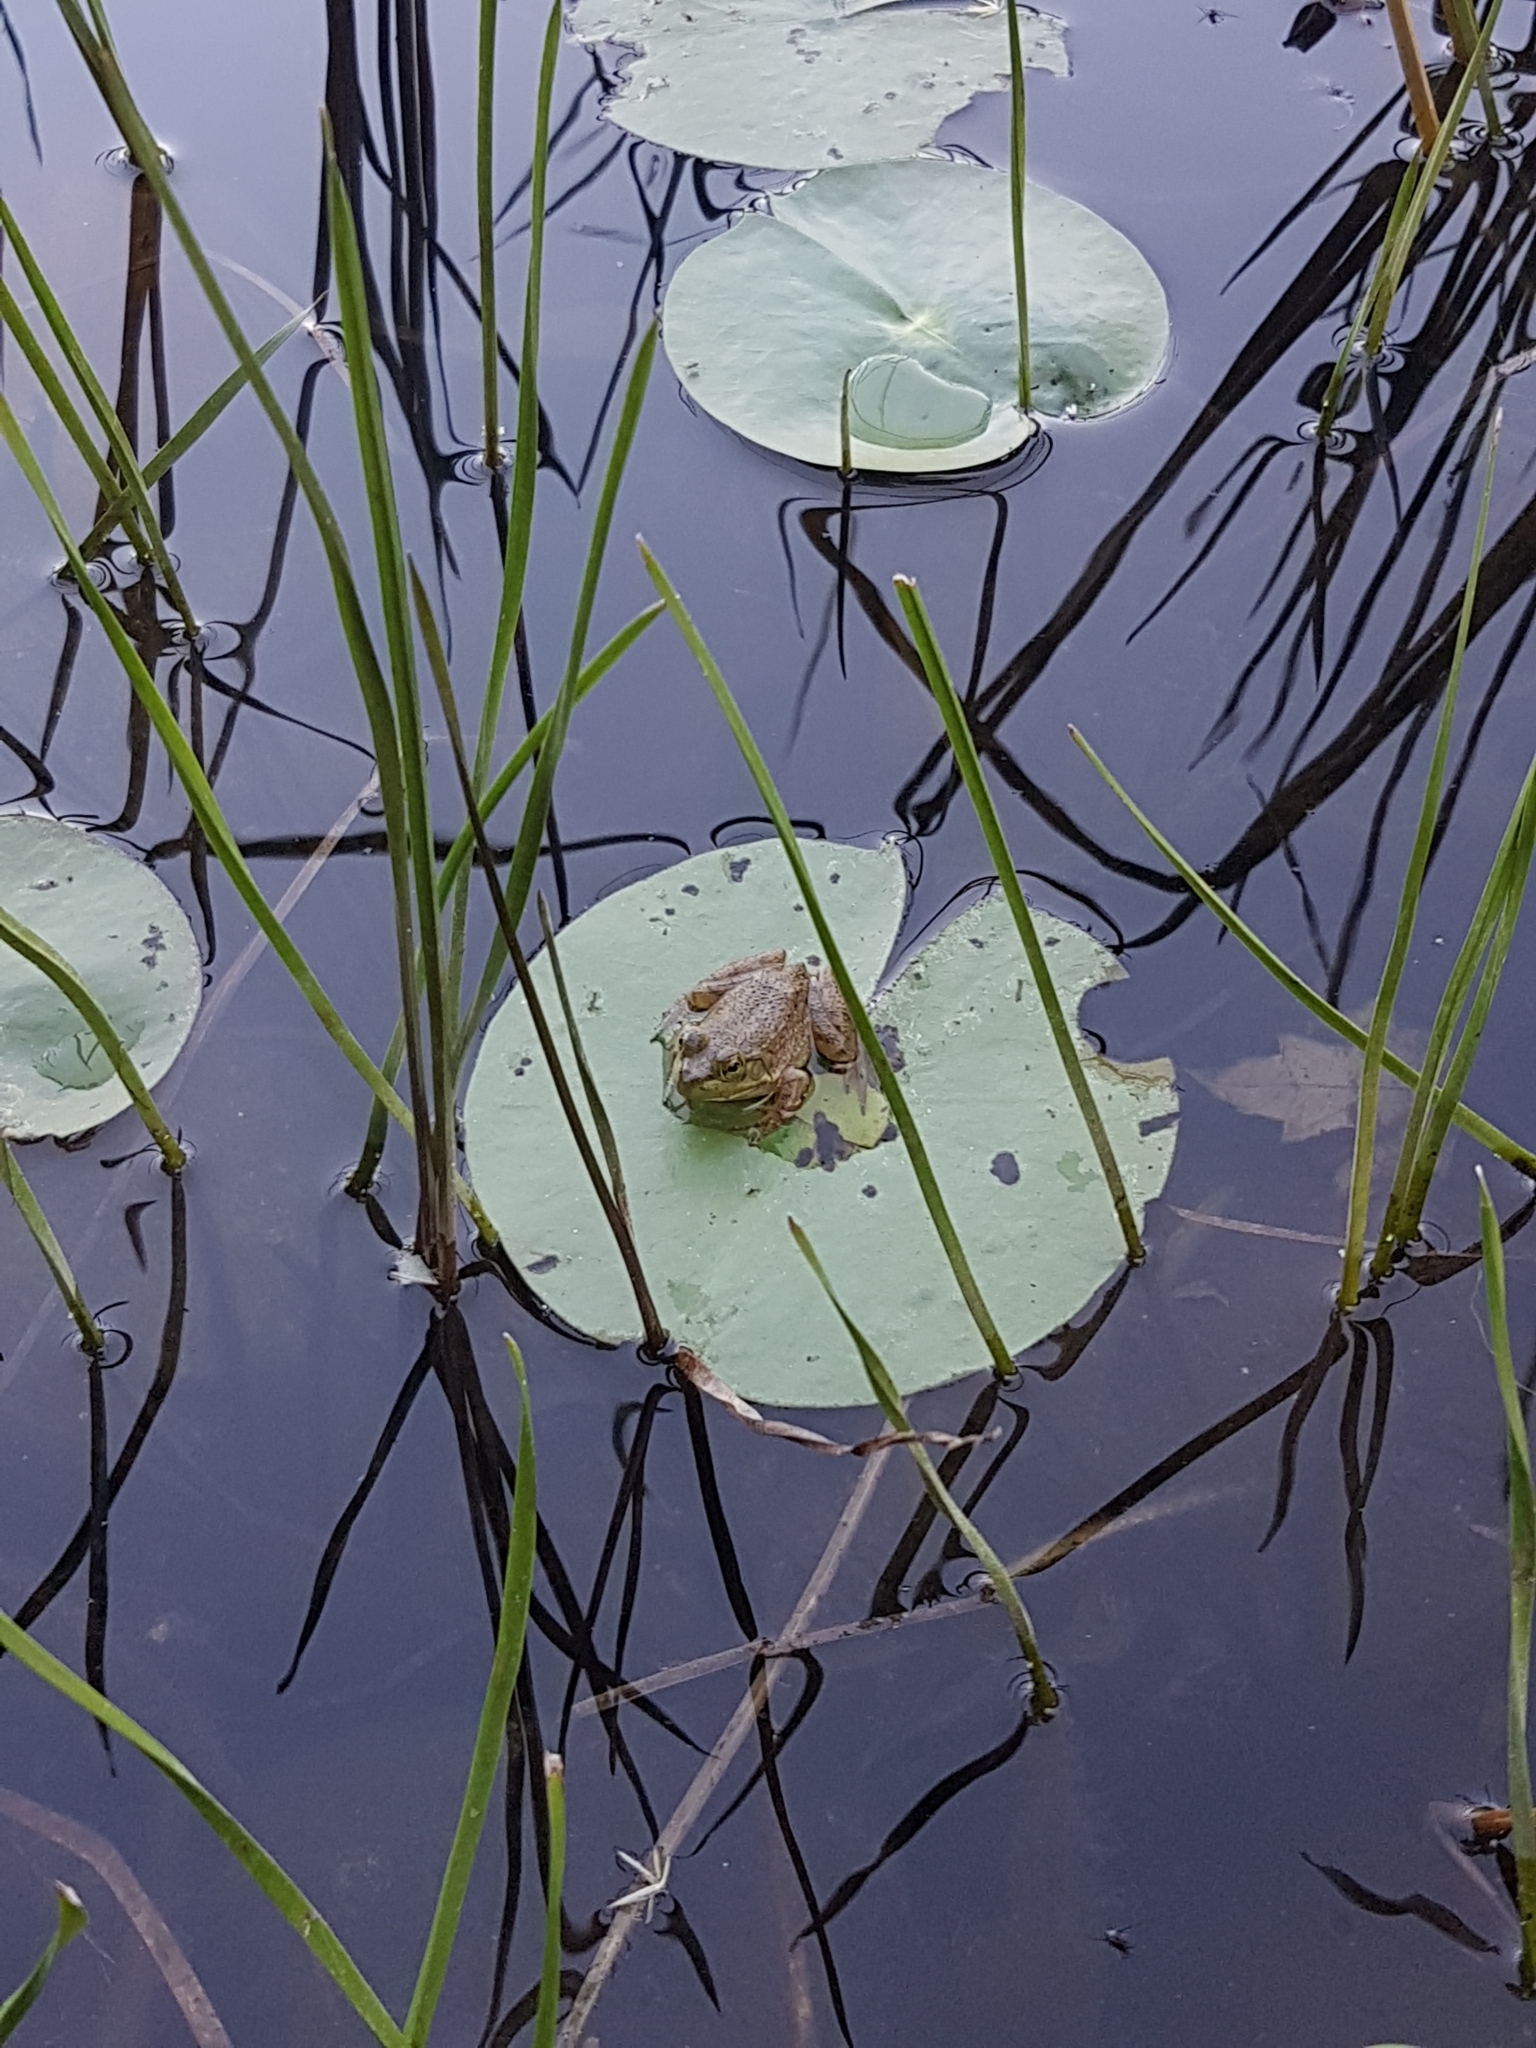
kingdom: Animalia
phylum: Chordata
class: Amphibia
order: Anura
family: Ranidae
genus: Lithobates
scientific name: Lithobates clamitans
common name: Green frog
